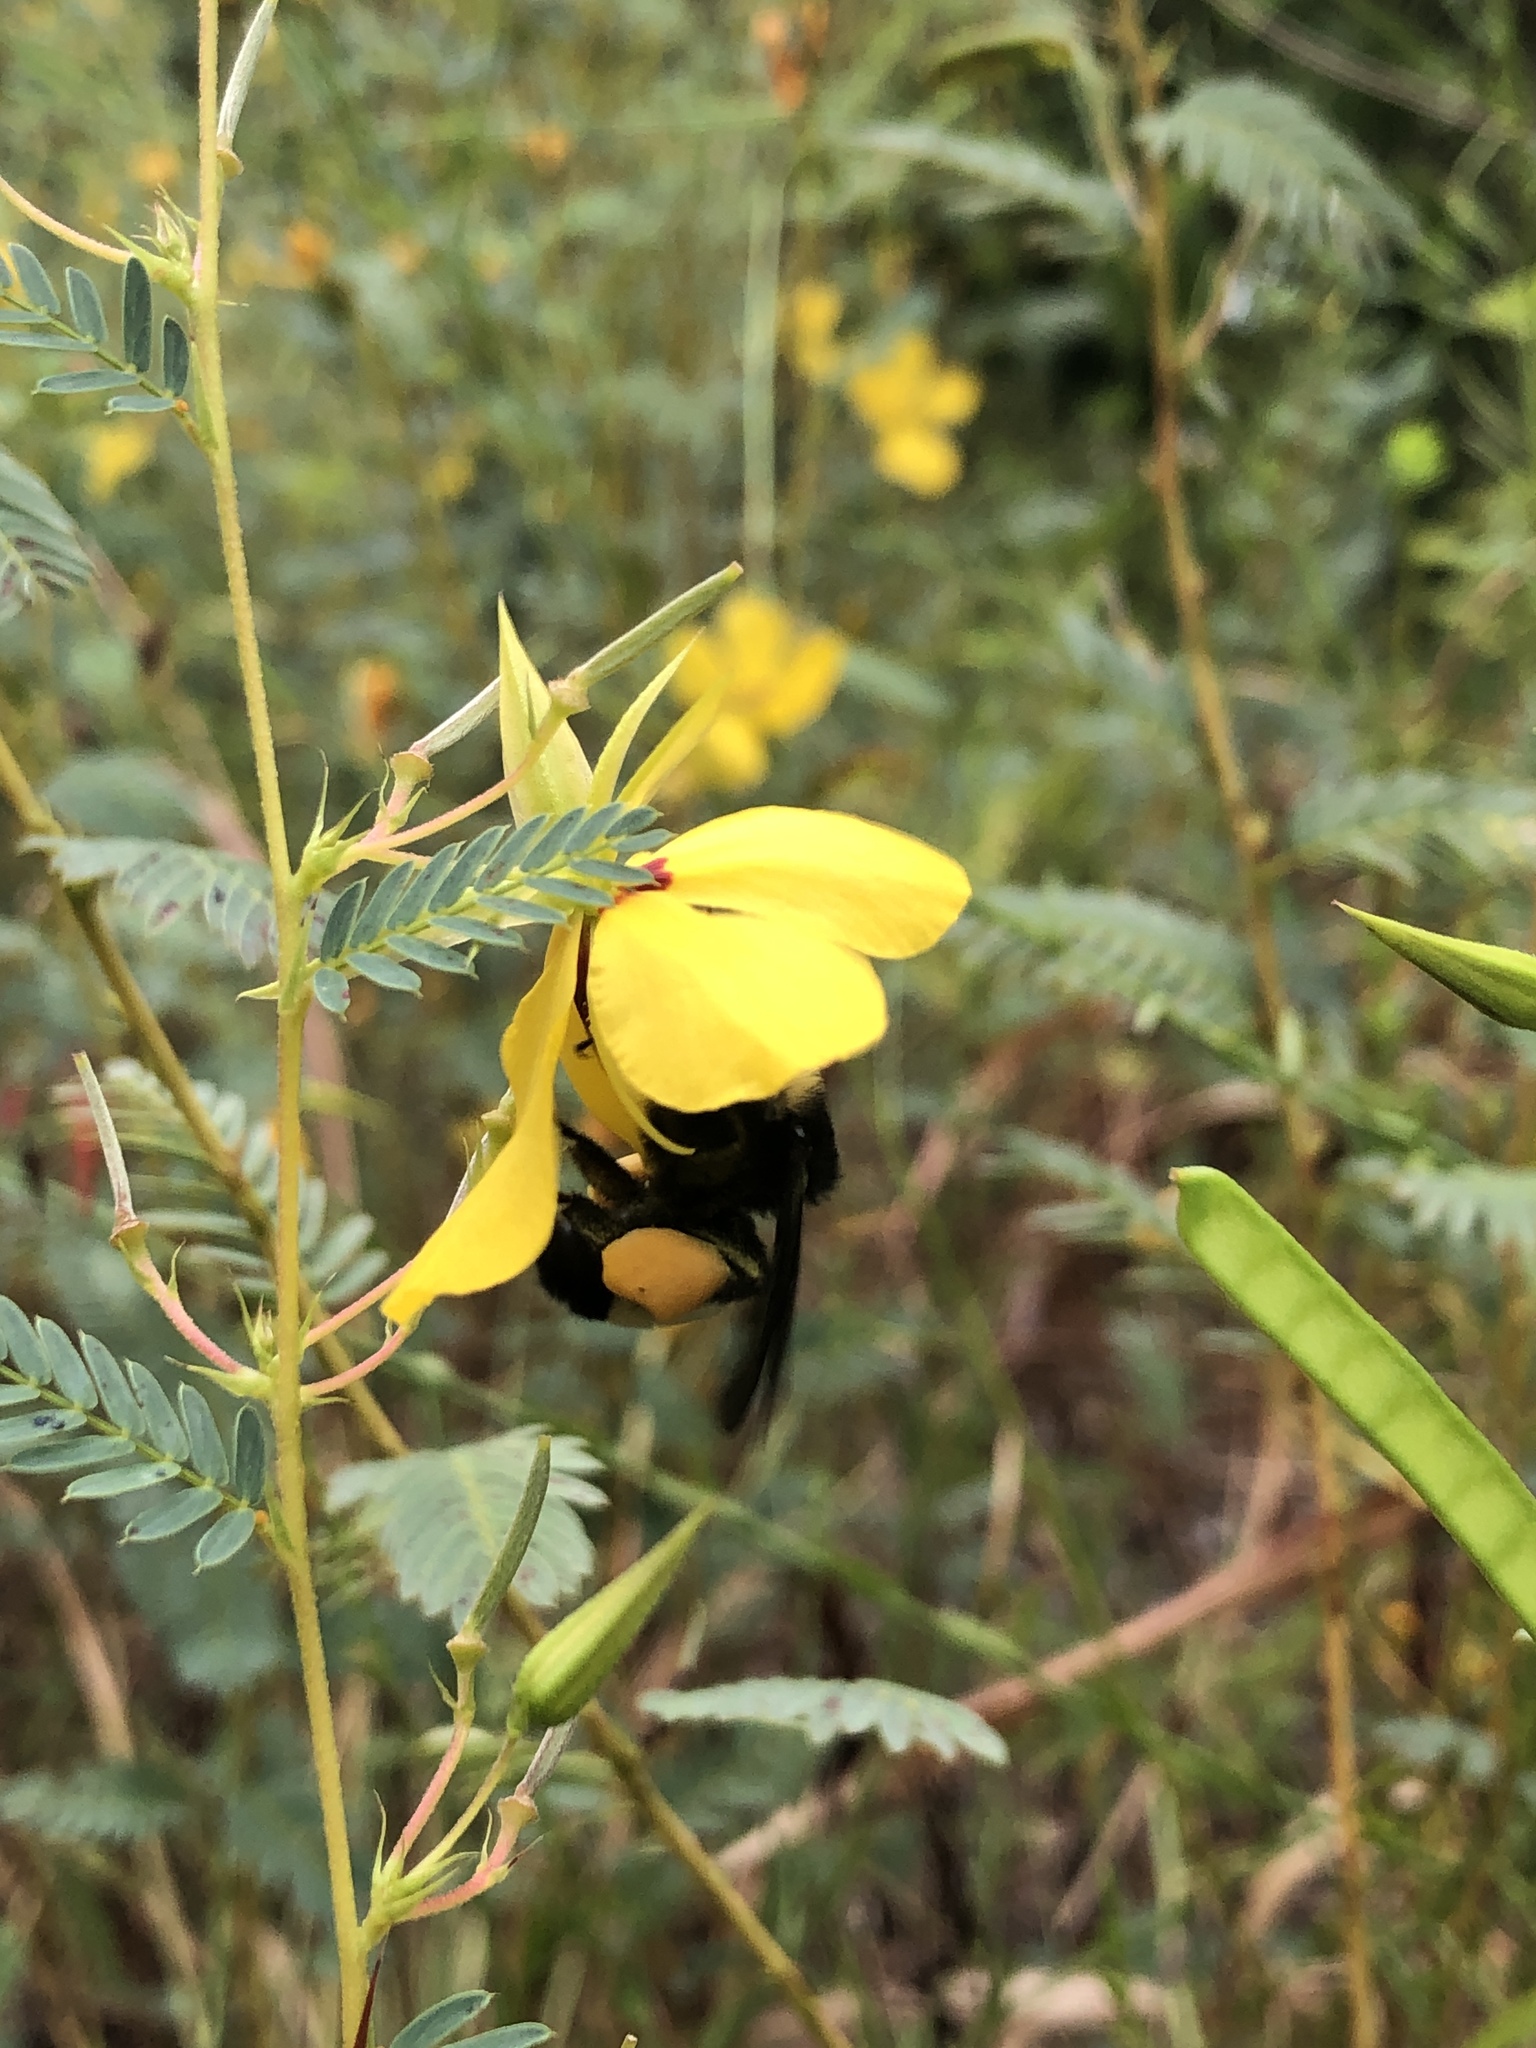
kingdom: Animalia
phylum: Arthropoda
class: Insecta
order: Hymenoptera
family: Apidae
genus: Bombus
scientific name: Bombus pensylvanicus
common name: Bumble bee
